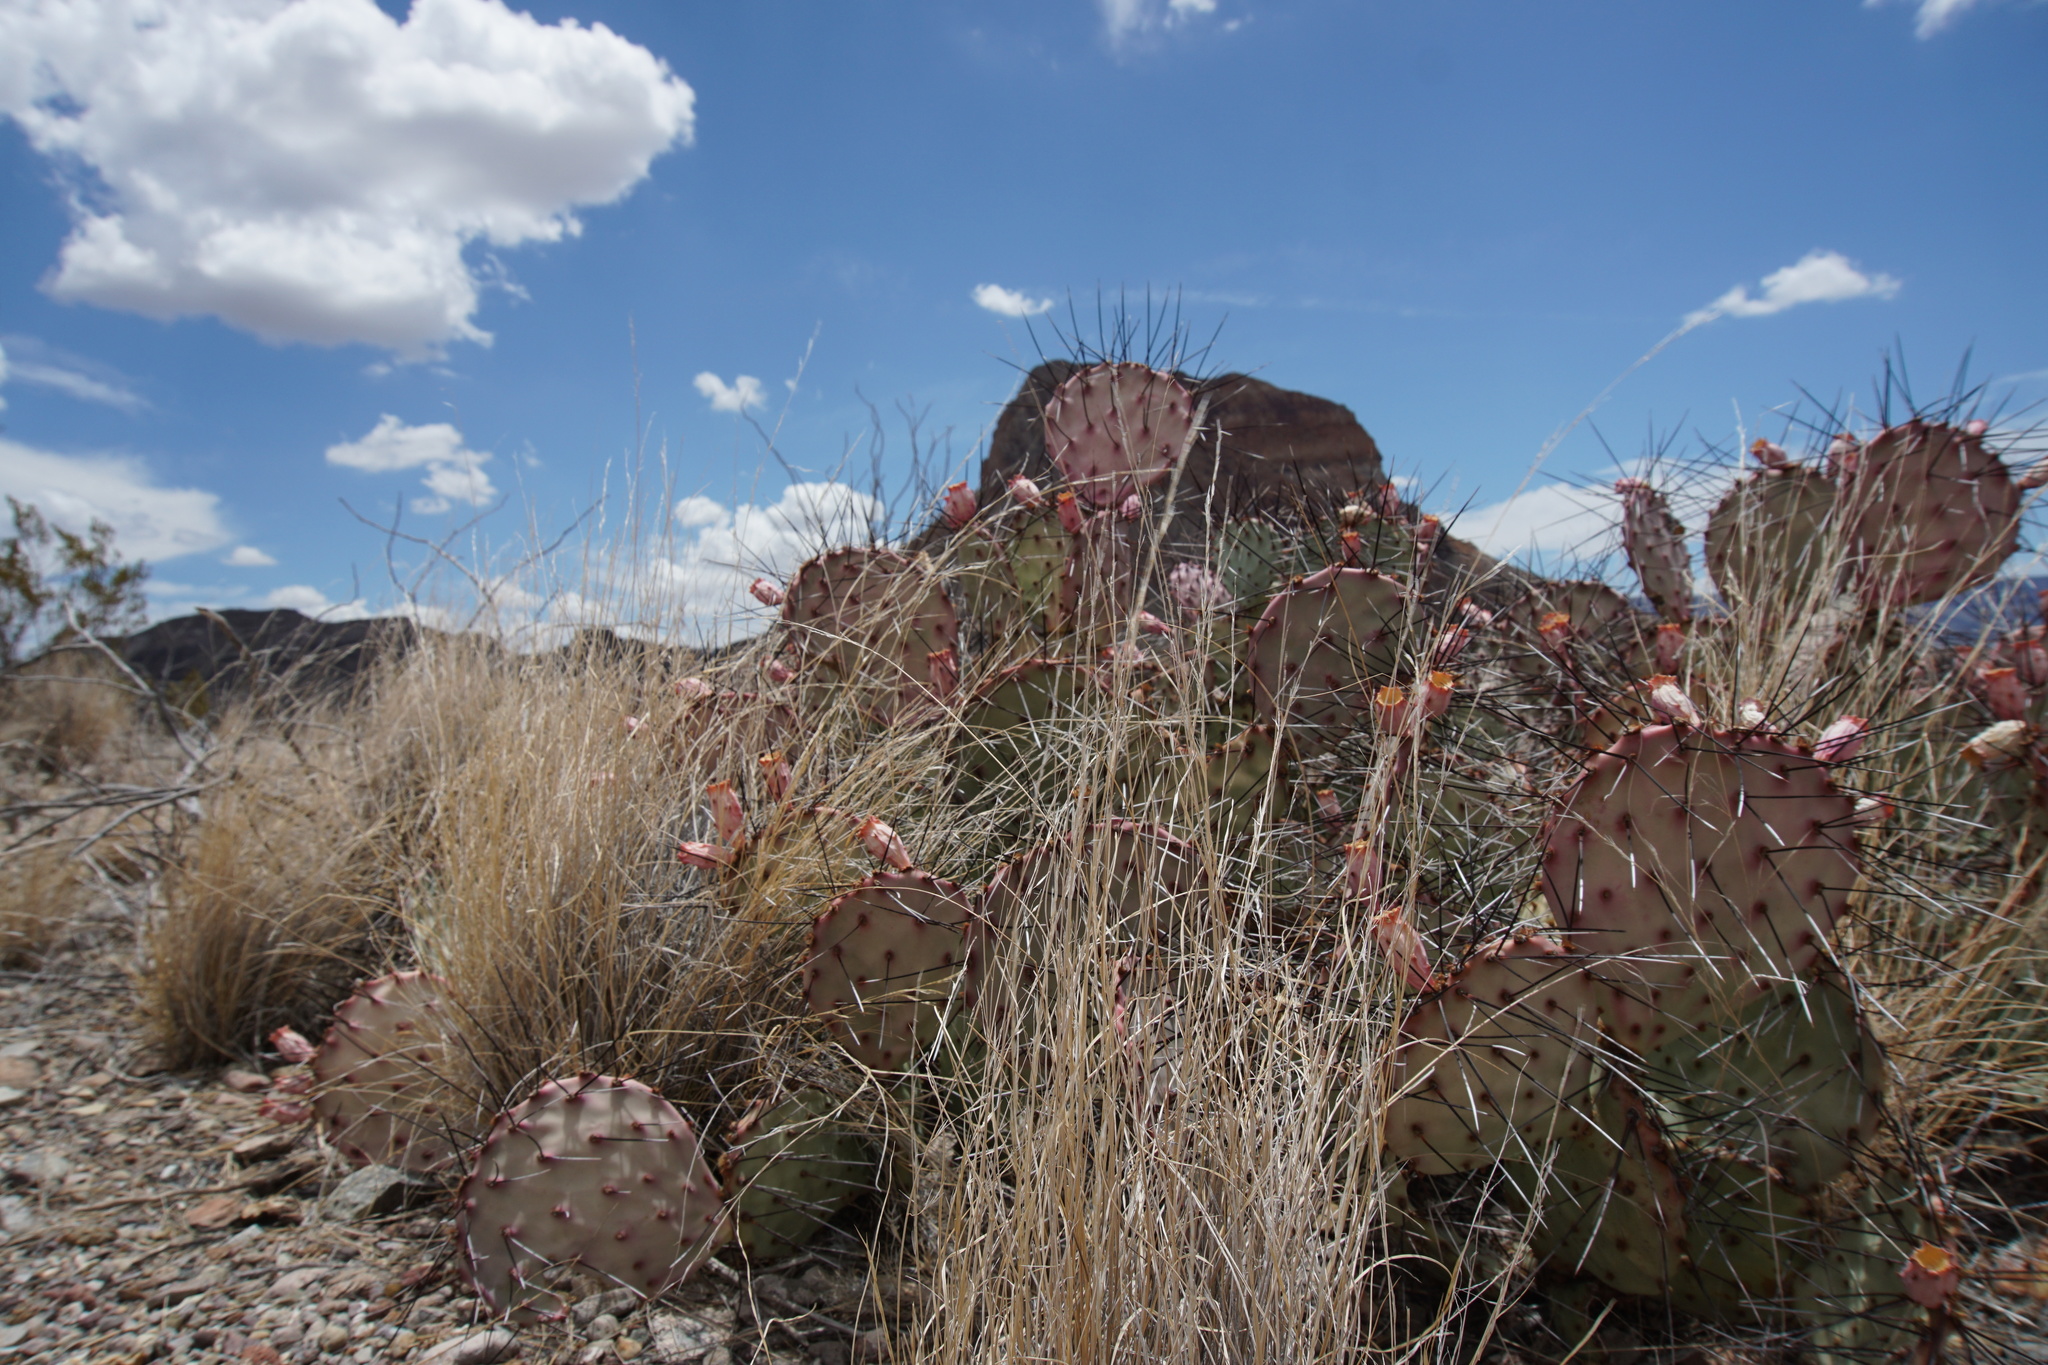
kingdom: Plantae
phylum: Tracheophyta
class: Magnoliopsida
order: Caryophyllales
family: Cactaceae
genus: Opuntia
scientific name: Opuntia aureispina
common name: Golden-spined prickly-pear
